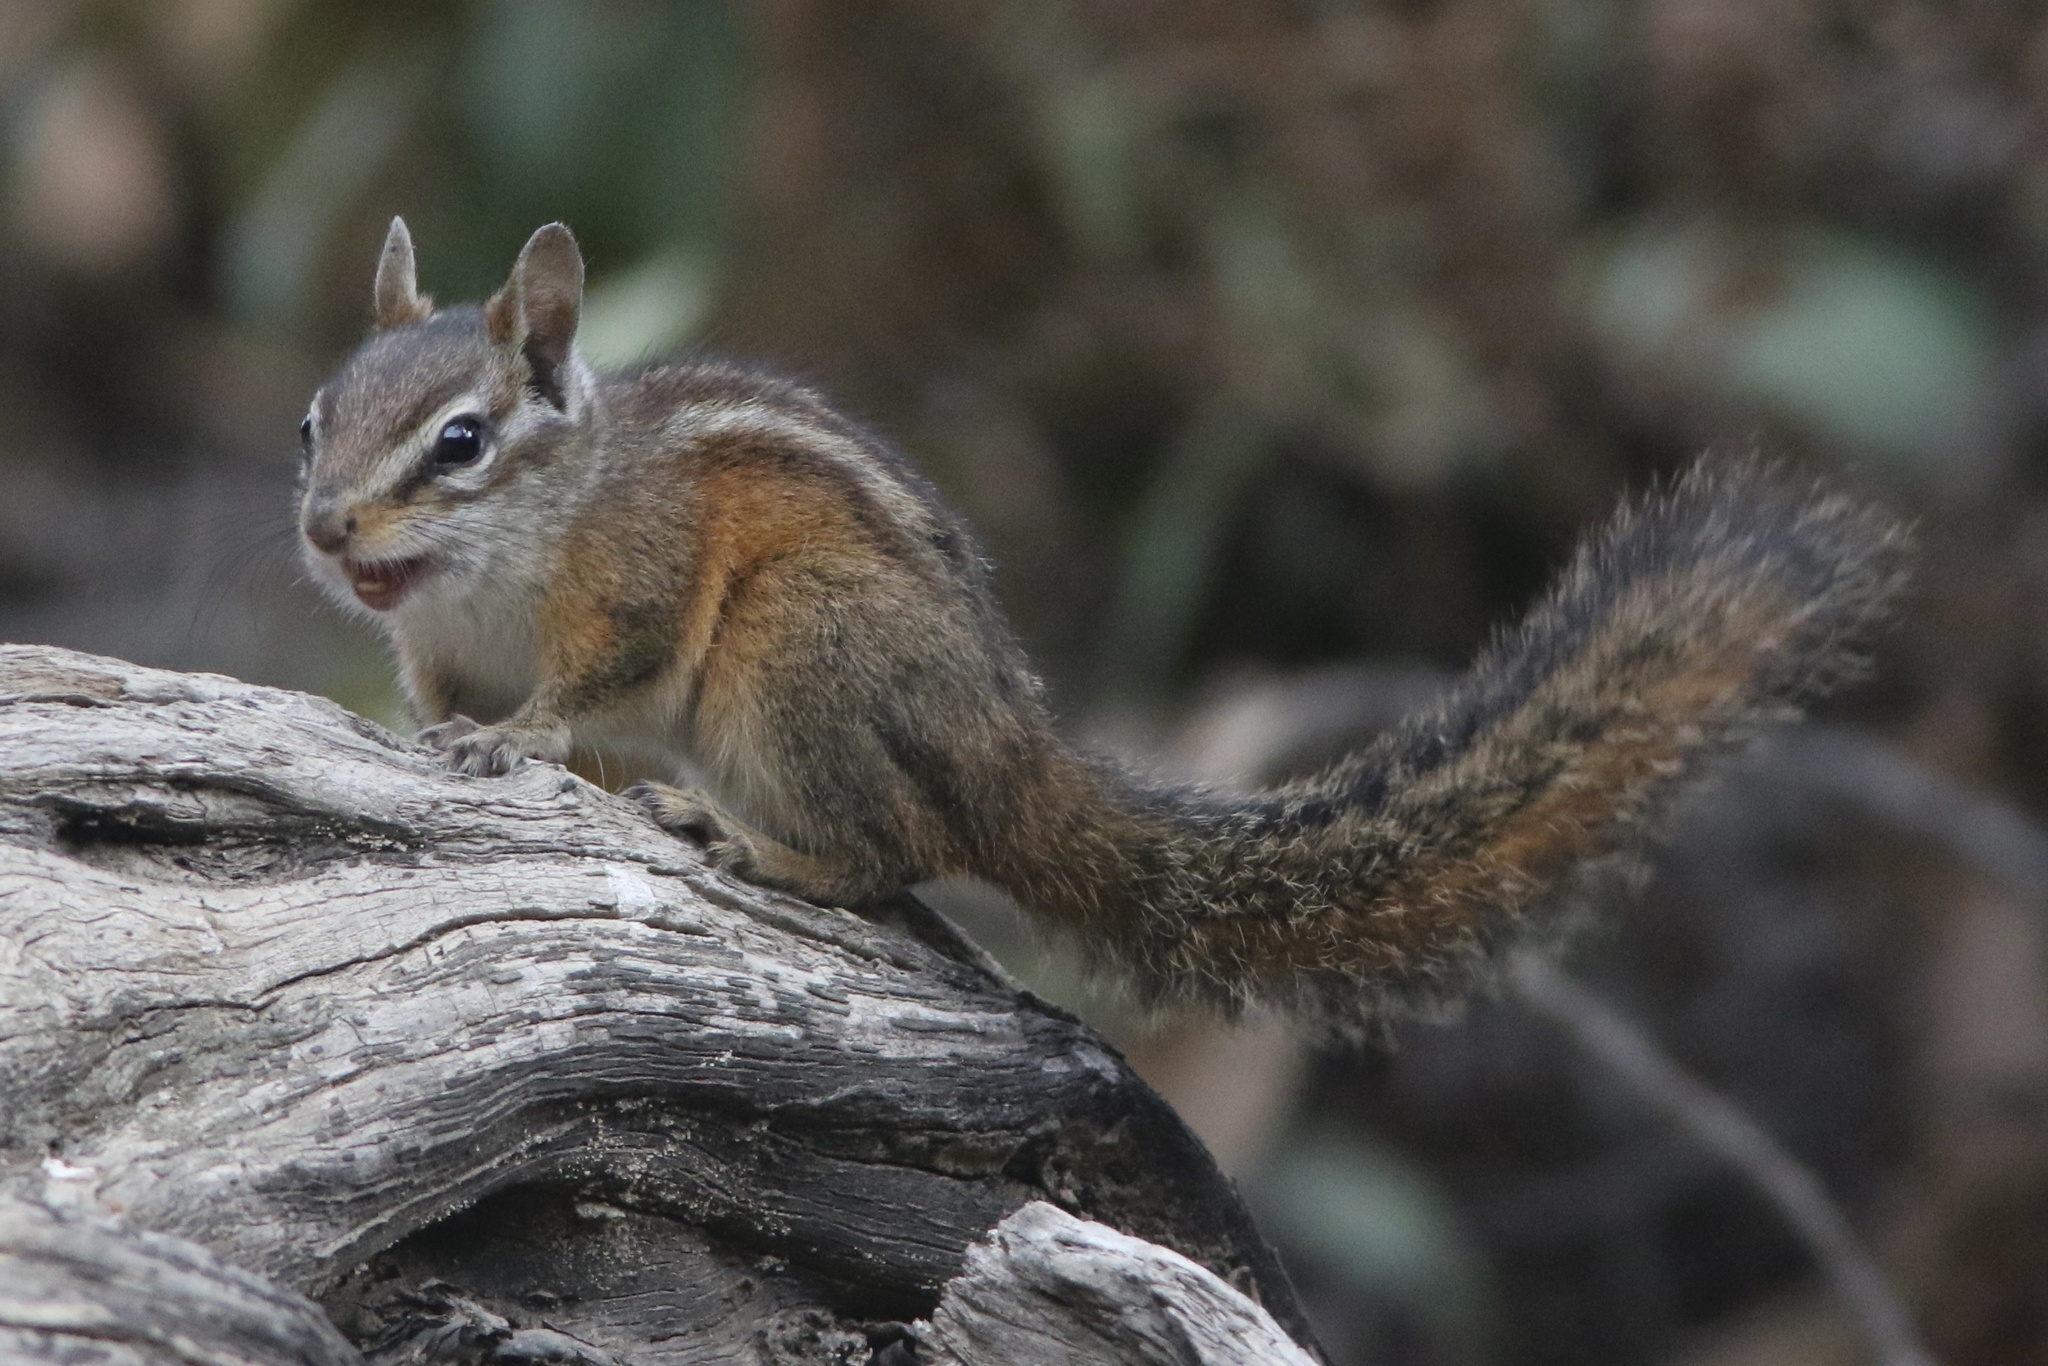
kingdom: Animalia
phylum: Chordata
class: Mammalia
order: Rodentia
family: Sciuridae
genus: Tamias
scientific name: Tamias merriami
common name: Merriam's chipmunk
